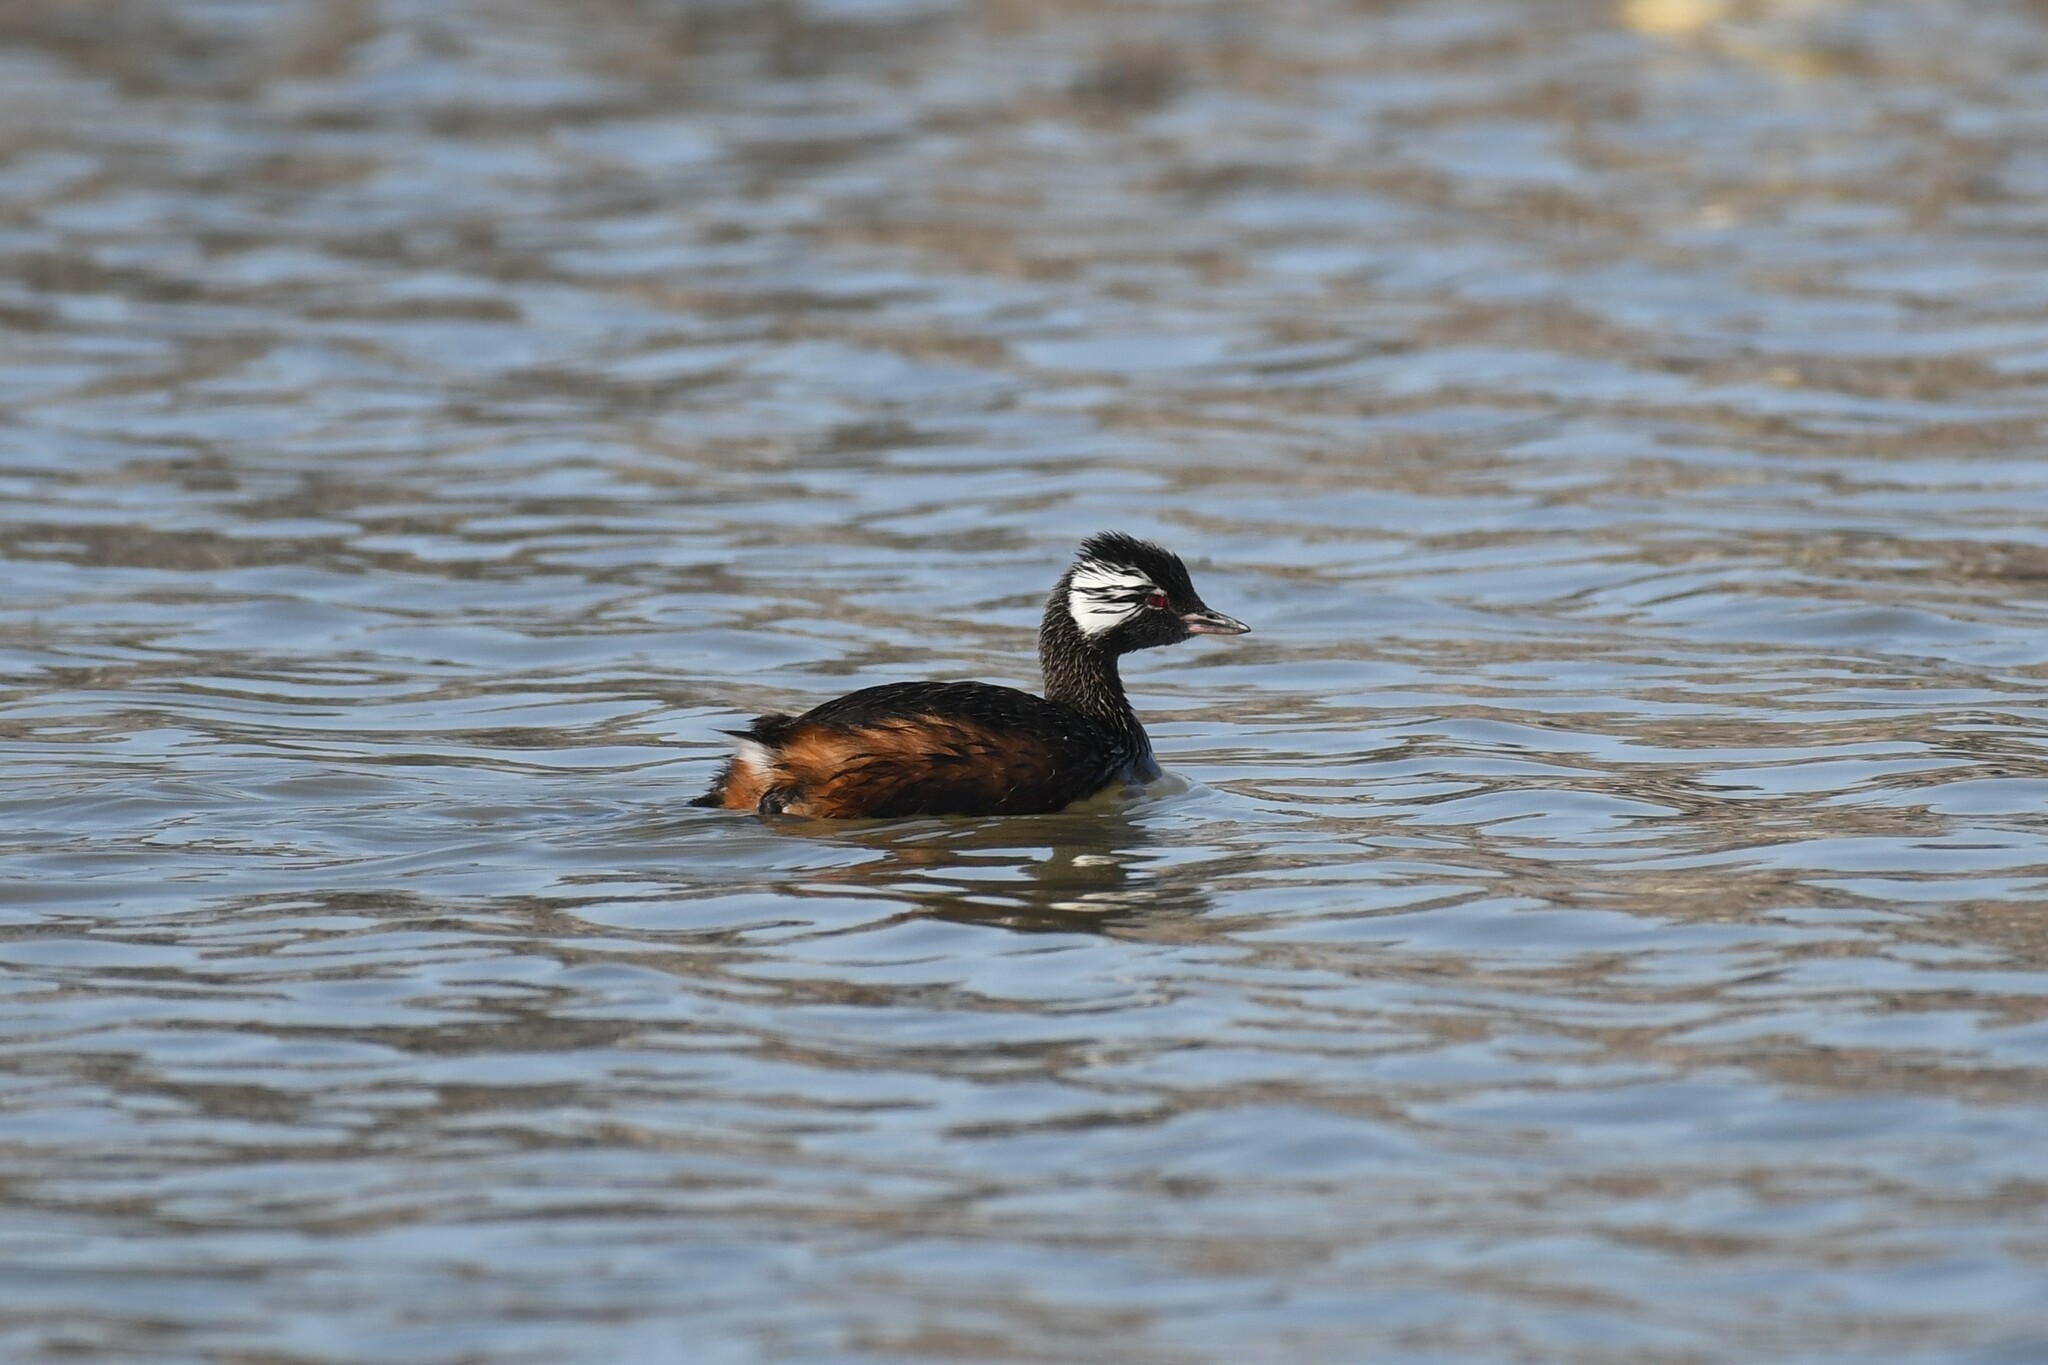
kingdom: Animalia
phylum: Chordata
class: Aves
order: Podicipediformes
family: Podicipedidae
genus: Rollandia
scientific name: Rollandia rolland
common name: White-tufted grebe
